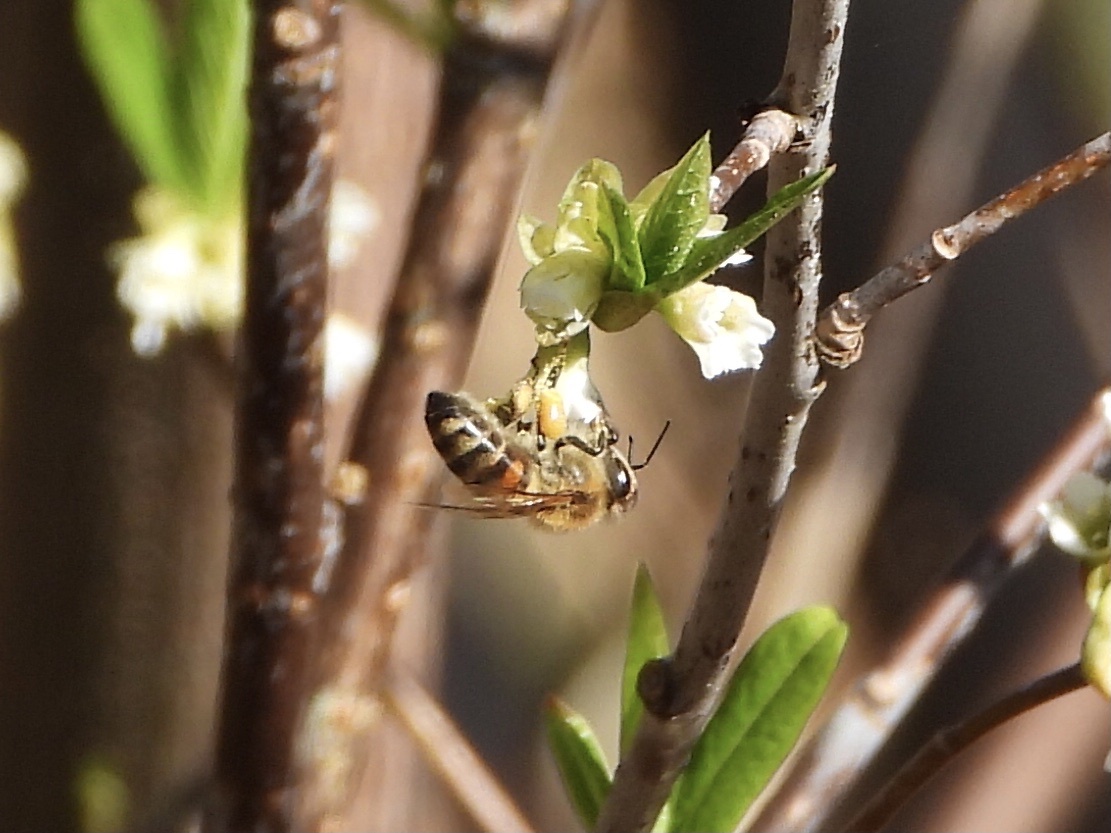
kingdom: Animalia
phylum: Arthropoda
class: Insecta
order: Hymenoptera
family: Apidae
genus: Apis
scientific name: Apis mellifera
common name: Honey bee
